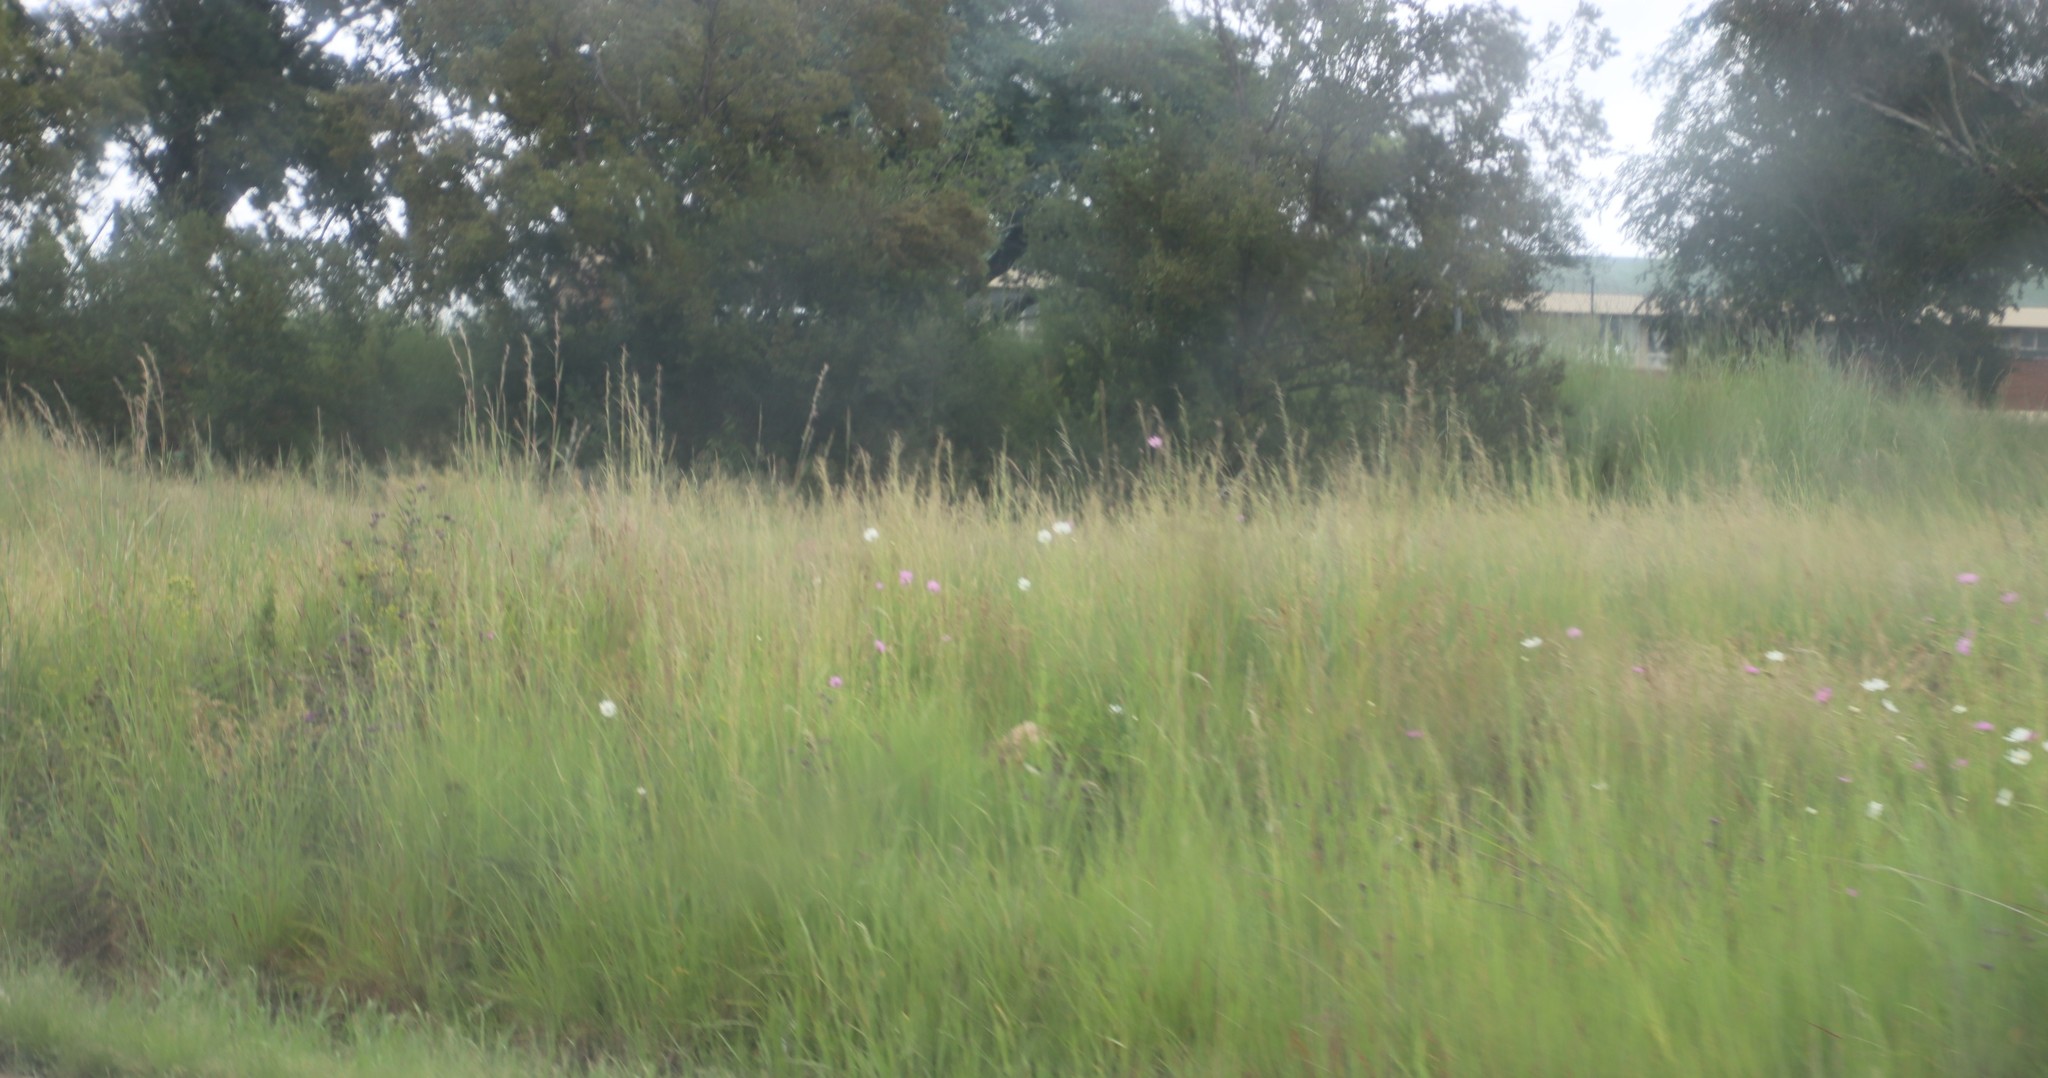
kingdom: Plantae
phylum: Tracheophyta
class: Magnoliopsida
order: Asterales
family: Asteraceae
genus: Cosmos
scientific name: Cosmos bipinnatus
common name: Garden cosmos
